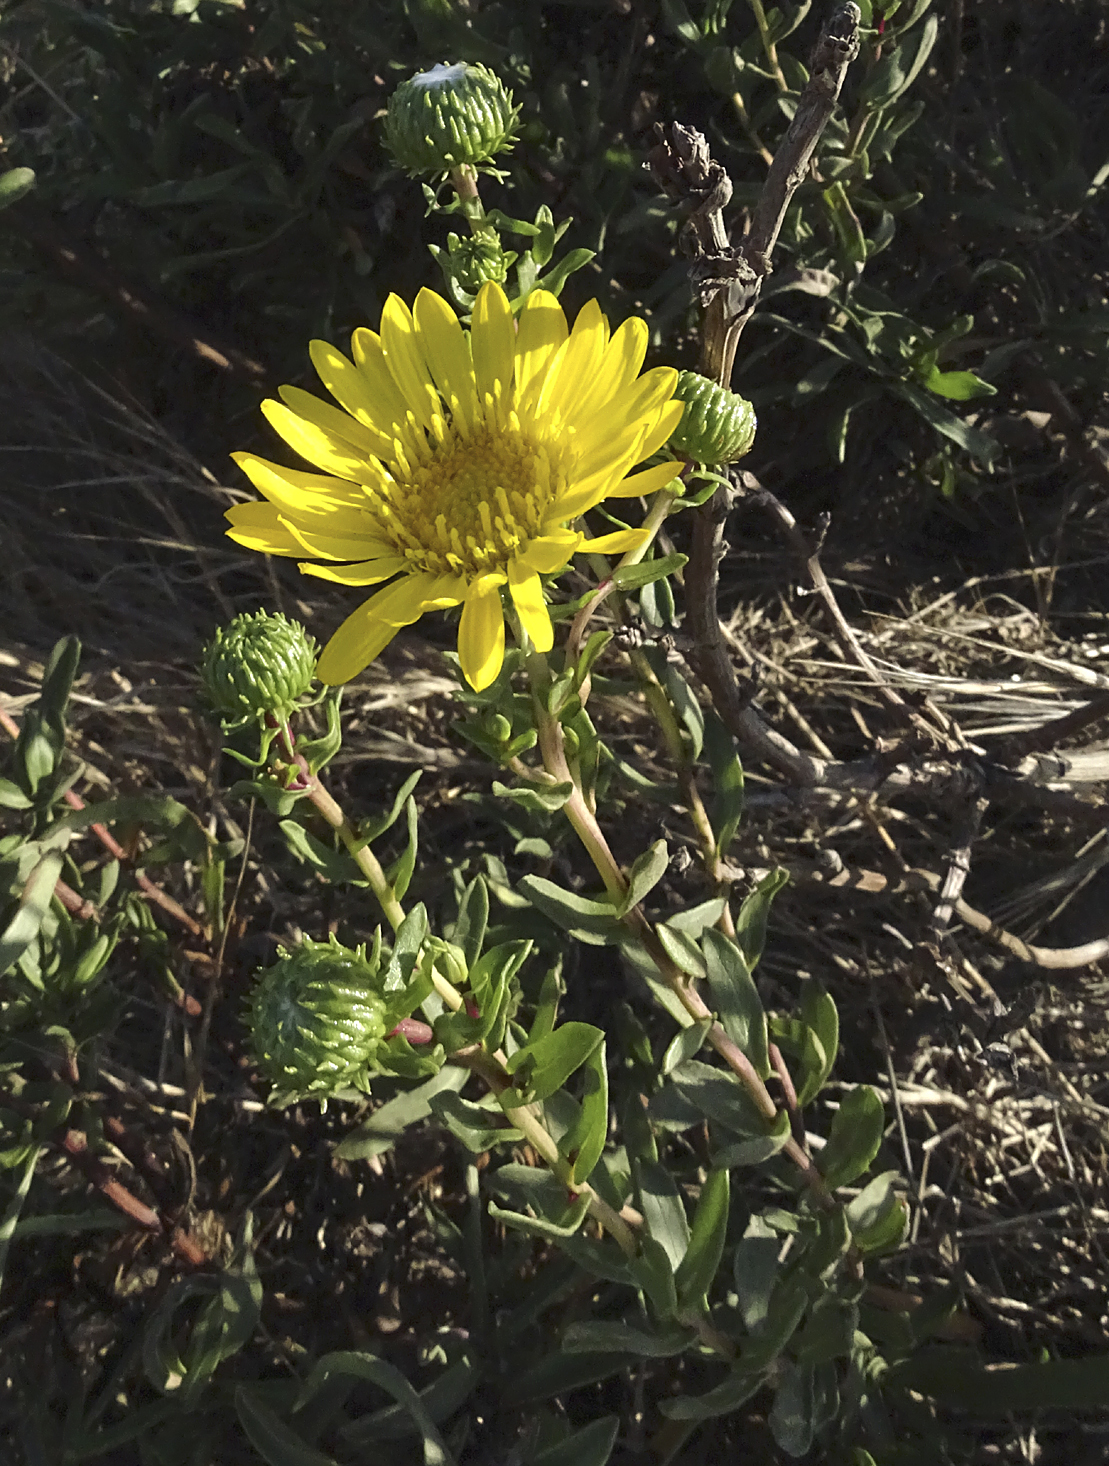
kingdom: Plantae
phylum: Tracheophyta
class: Magnoliopsida
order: Asterales
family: Asteraceae
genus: Grindelia
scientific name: Grindelia hirsutula
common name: Hairy gumweed
